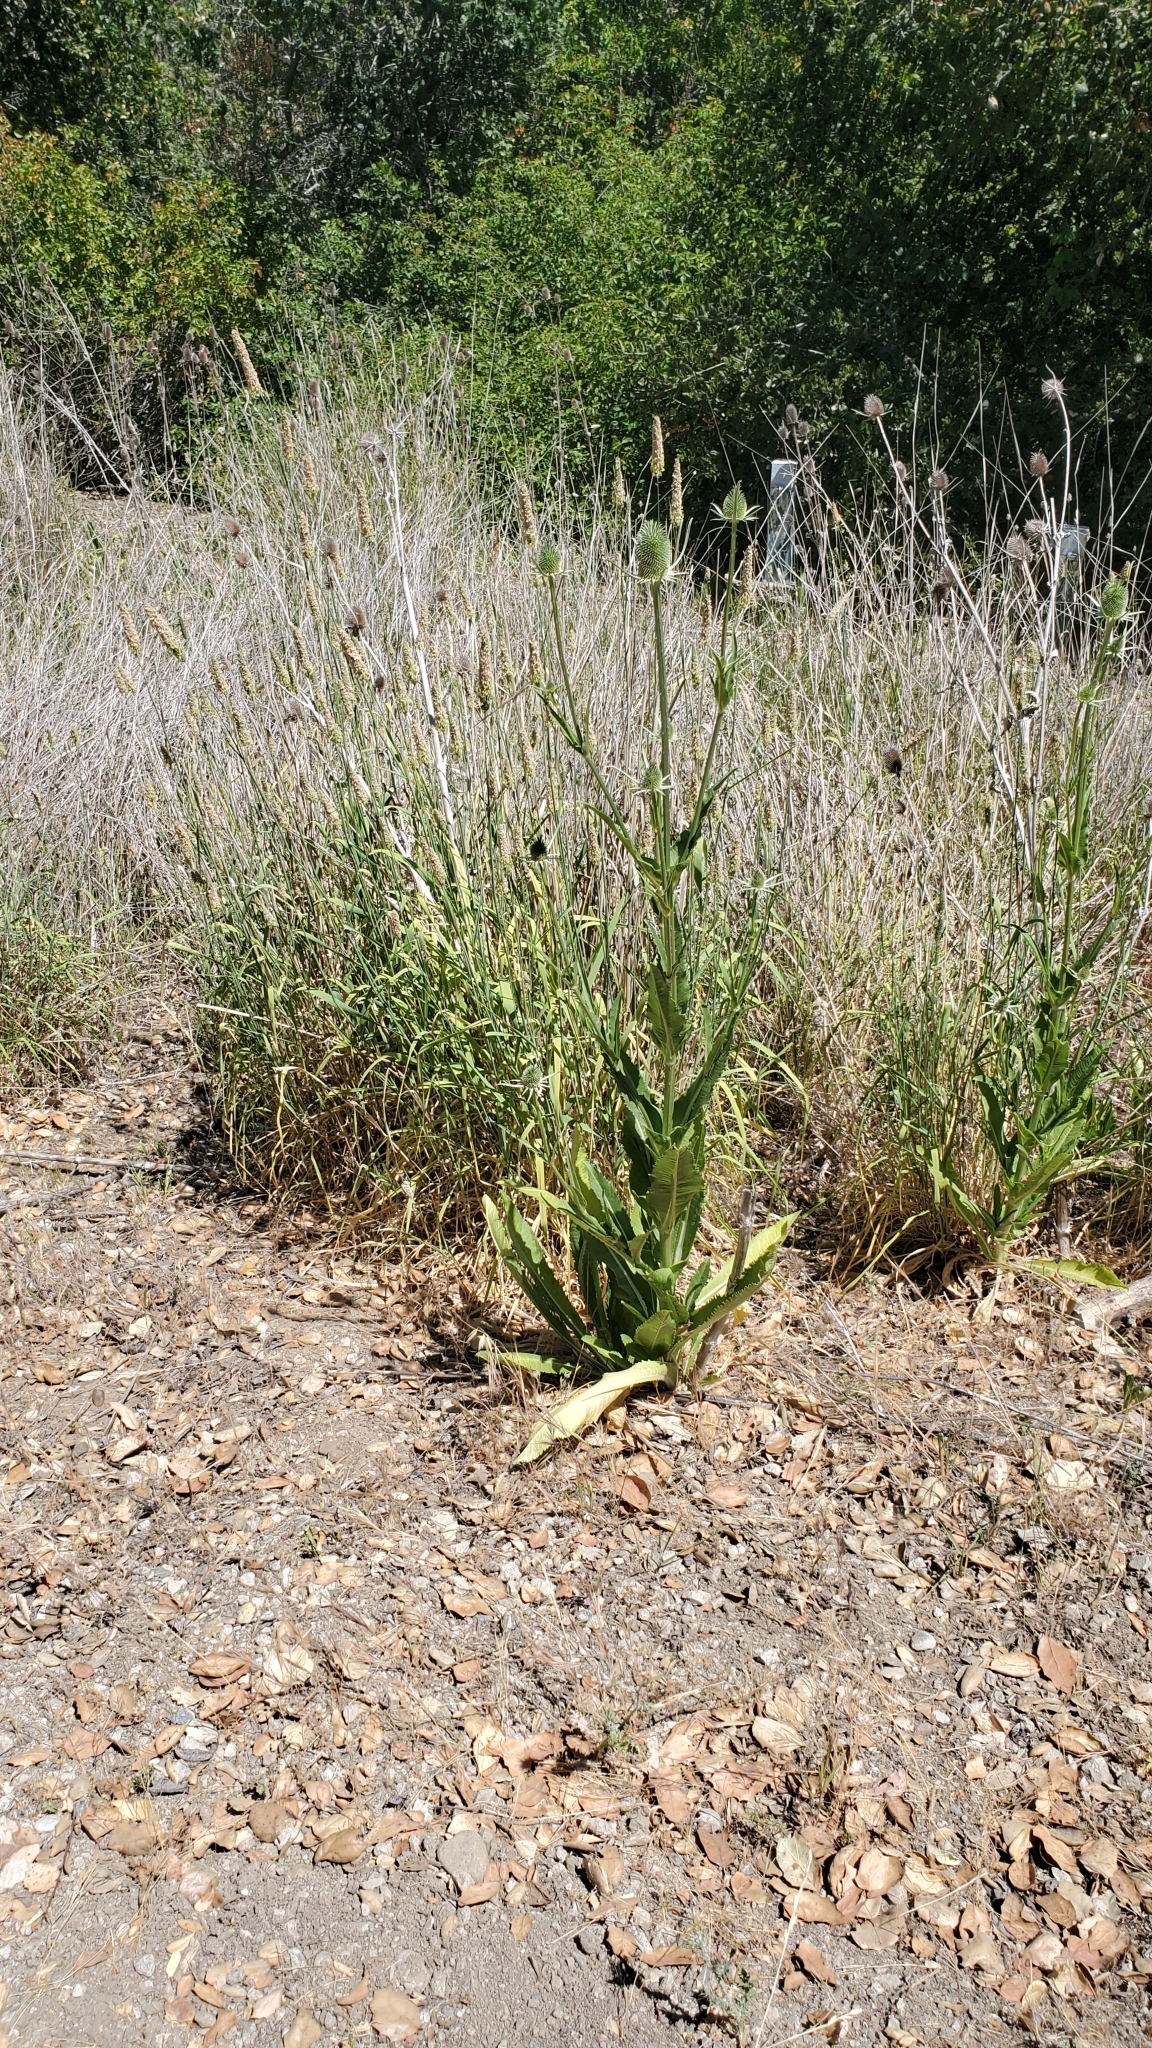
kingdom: Plantae
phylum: Tracheophyta
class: Magnoliopsida
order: Dipsacales
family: Caprifoliaceae
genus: Dipsacus
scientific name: Dipsacus sativus
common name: Fuller's teasel
